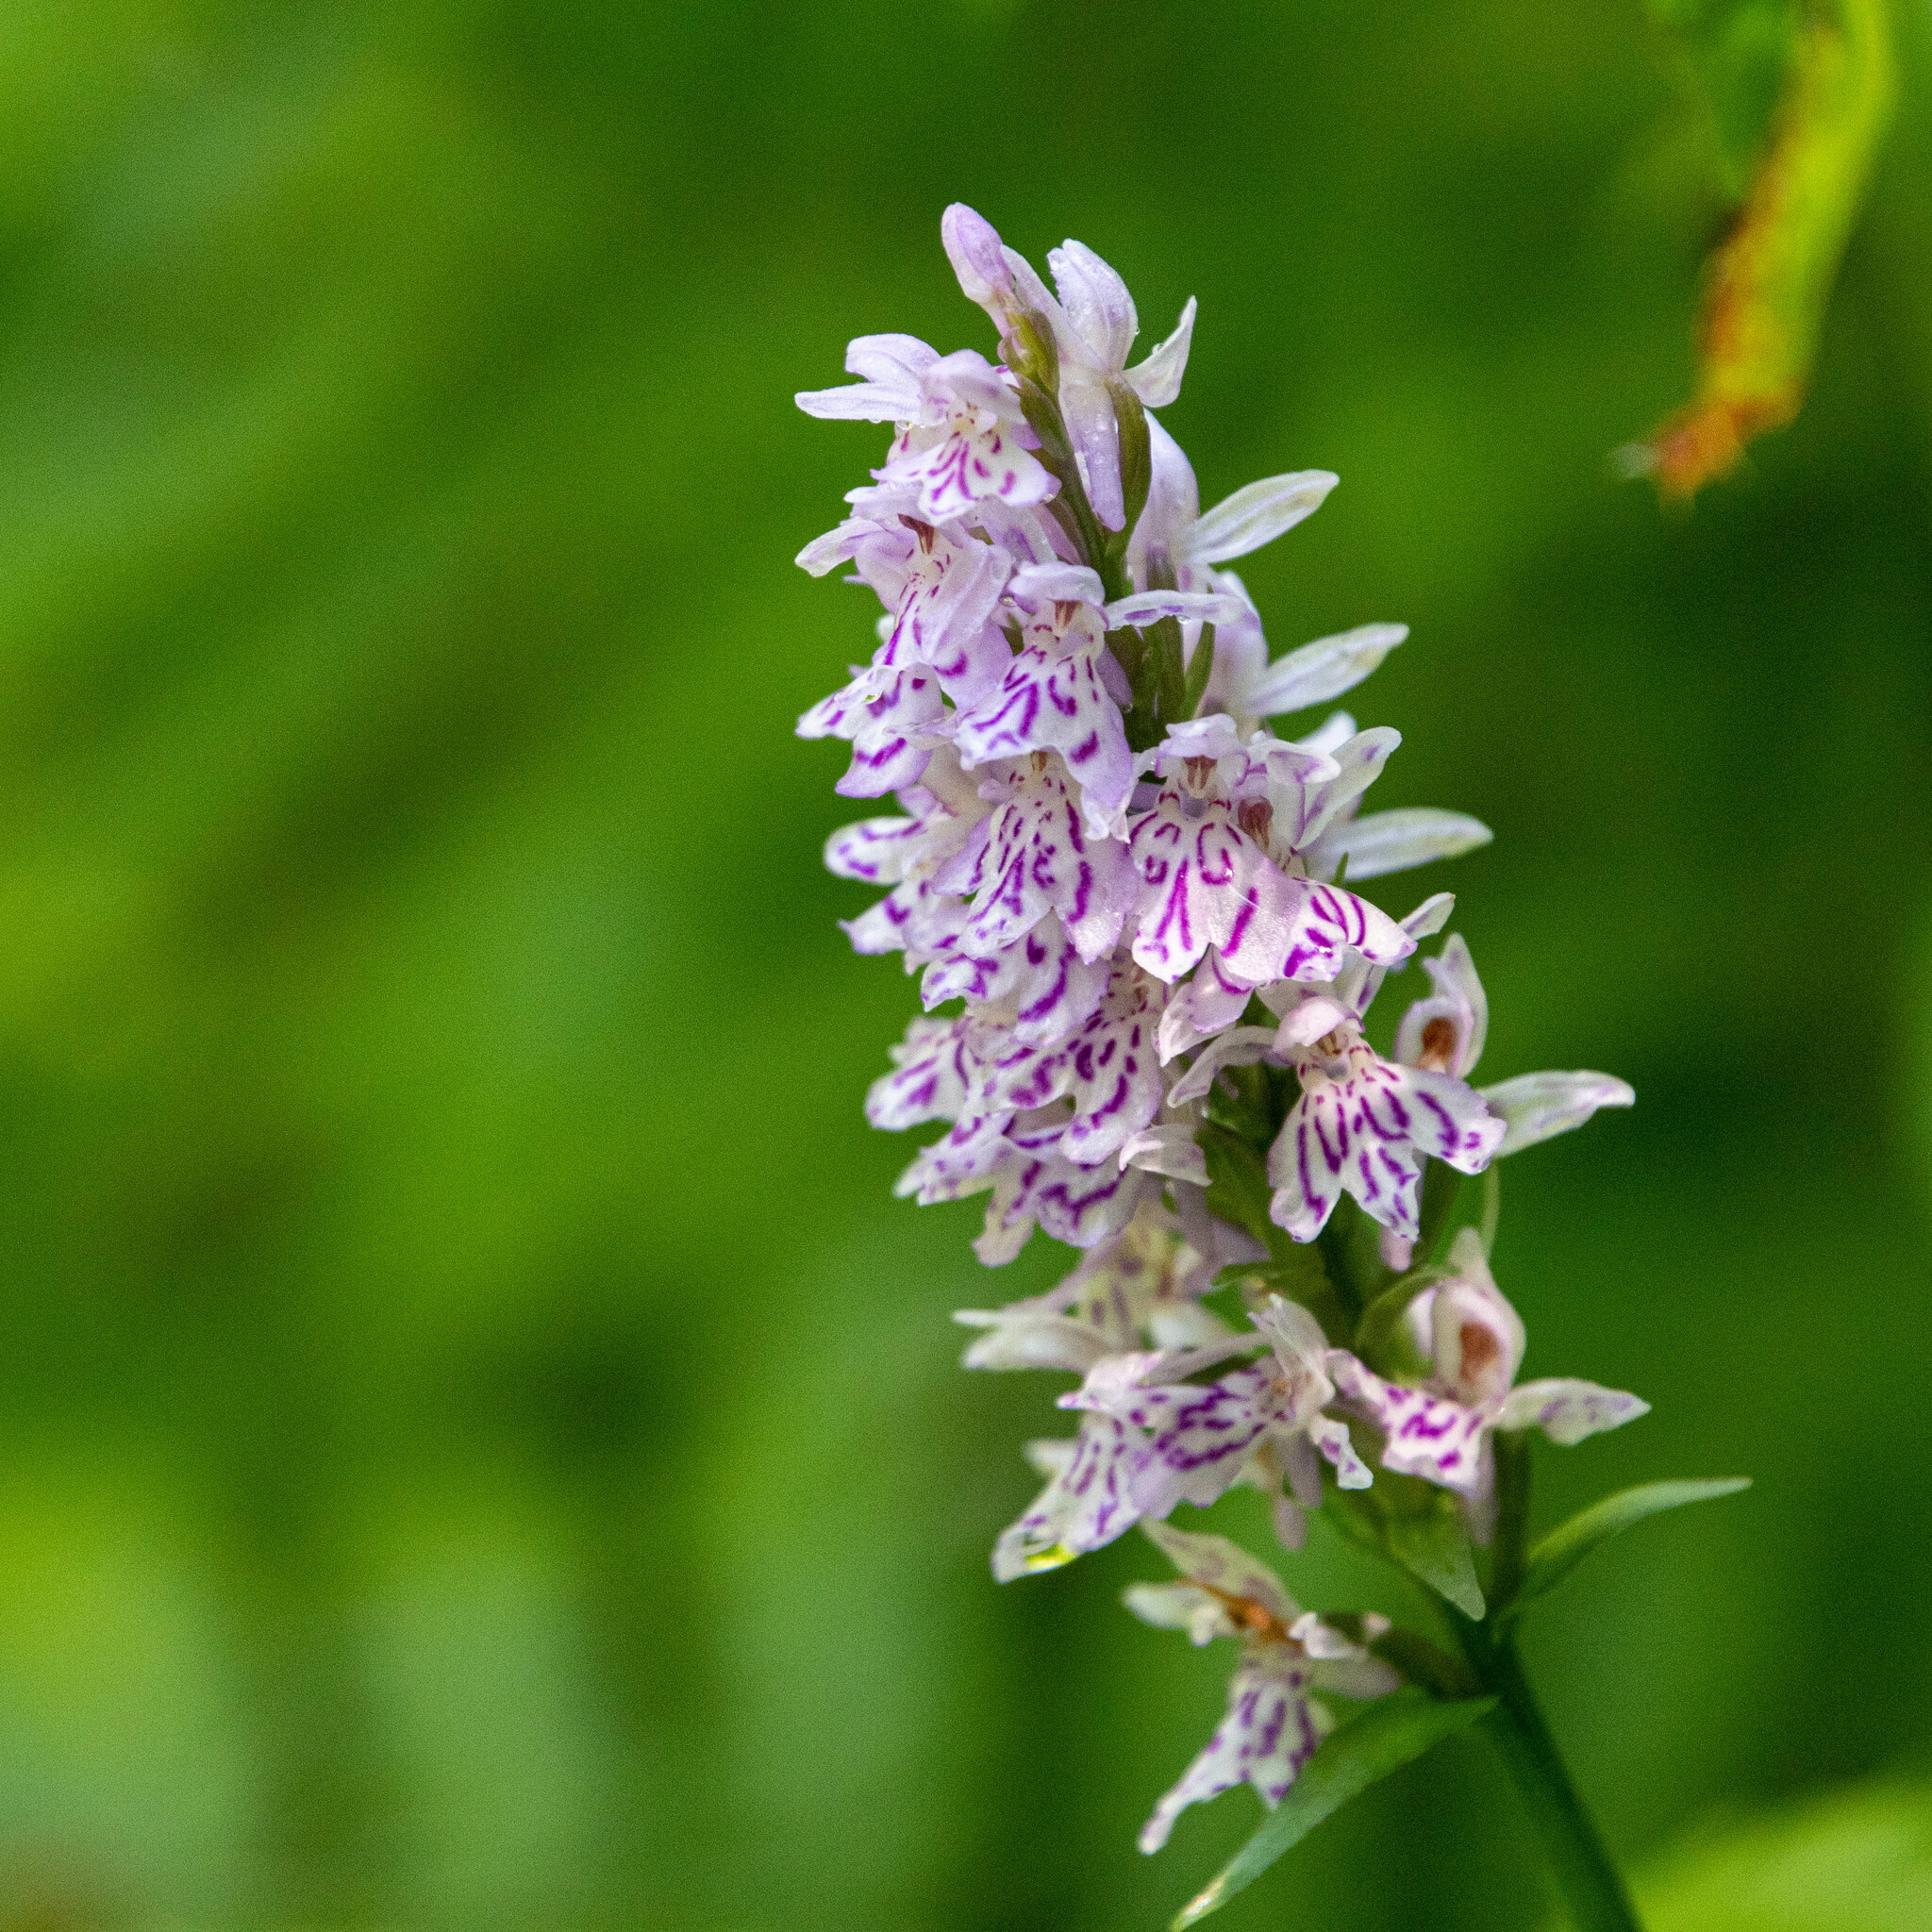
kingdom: Plantae
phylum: Tracheophyta
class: Liliopsida
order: Asparagales
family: Orchidaceae
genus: Dactylorhiza
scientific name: Dactylorhiza maculata
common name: Heath spotted-orchid
